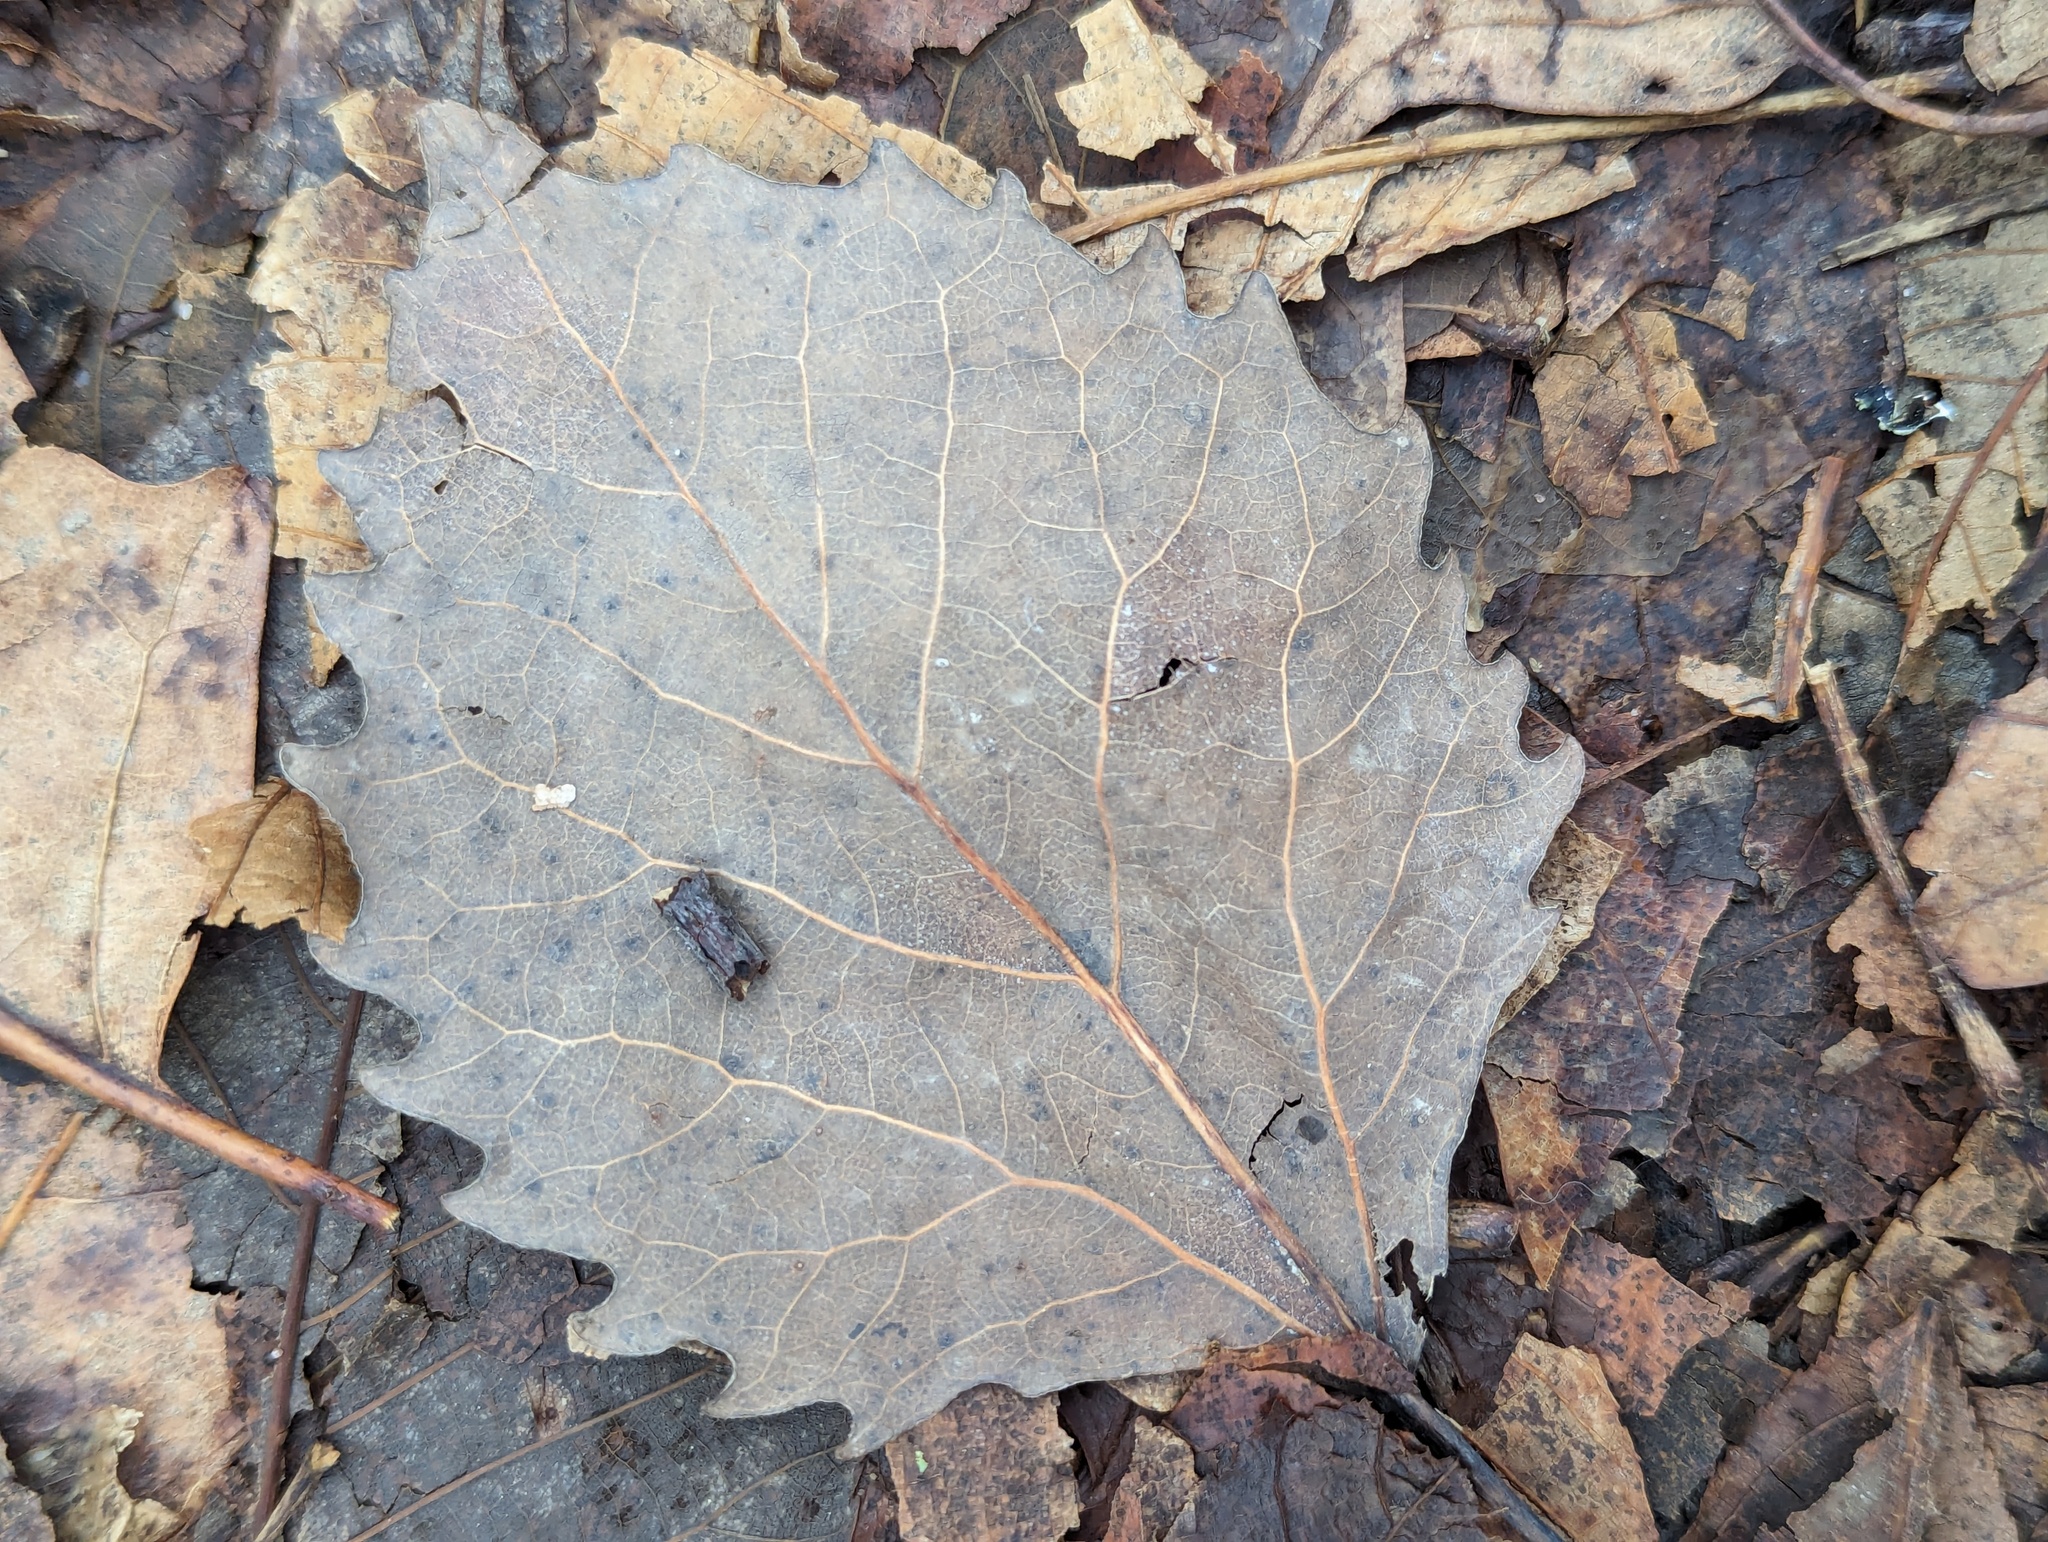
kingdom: Plantae
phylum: Tracheophyta
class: Magnoliopsida
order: Malpighiales
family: Salicaceae
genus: Populus
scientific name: Populus grandidentata
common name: Bigtooth aspen
